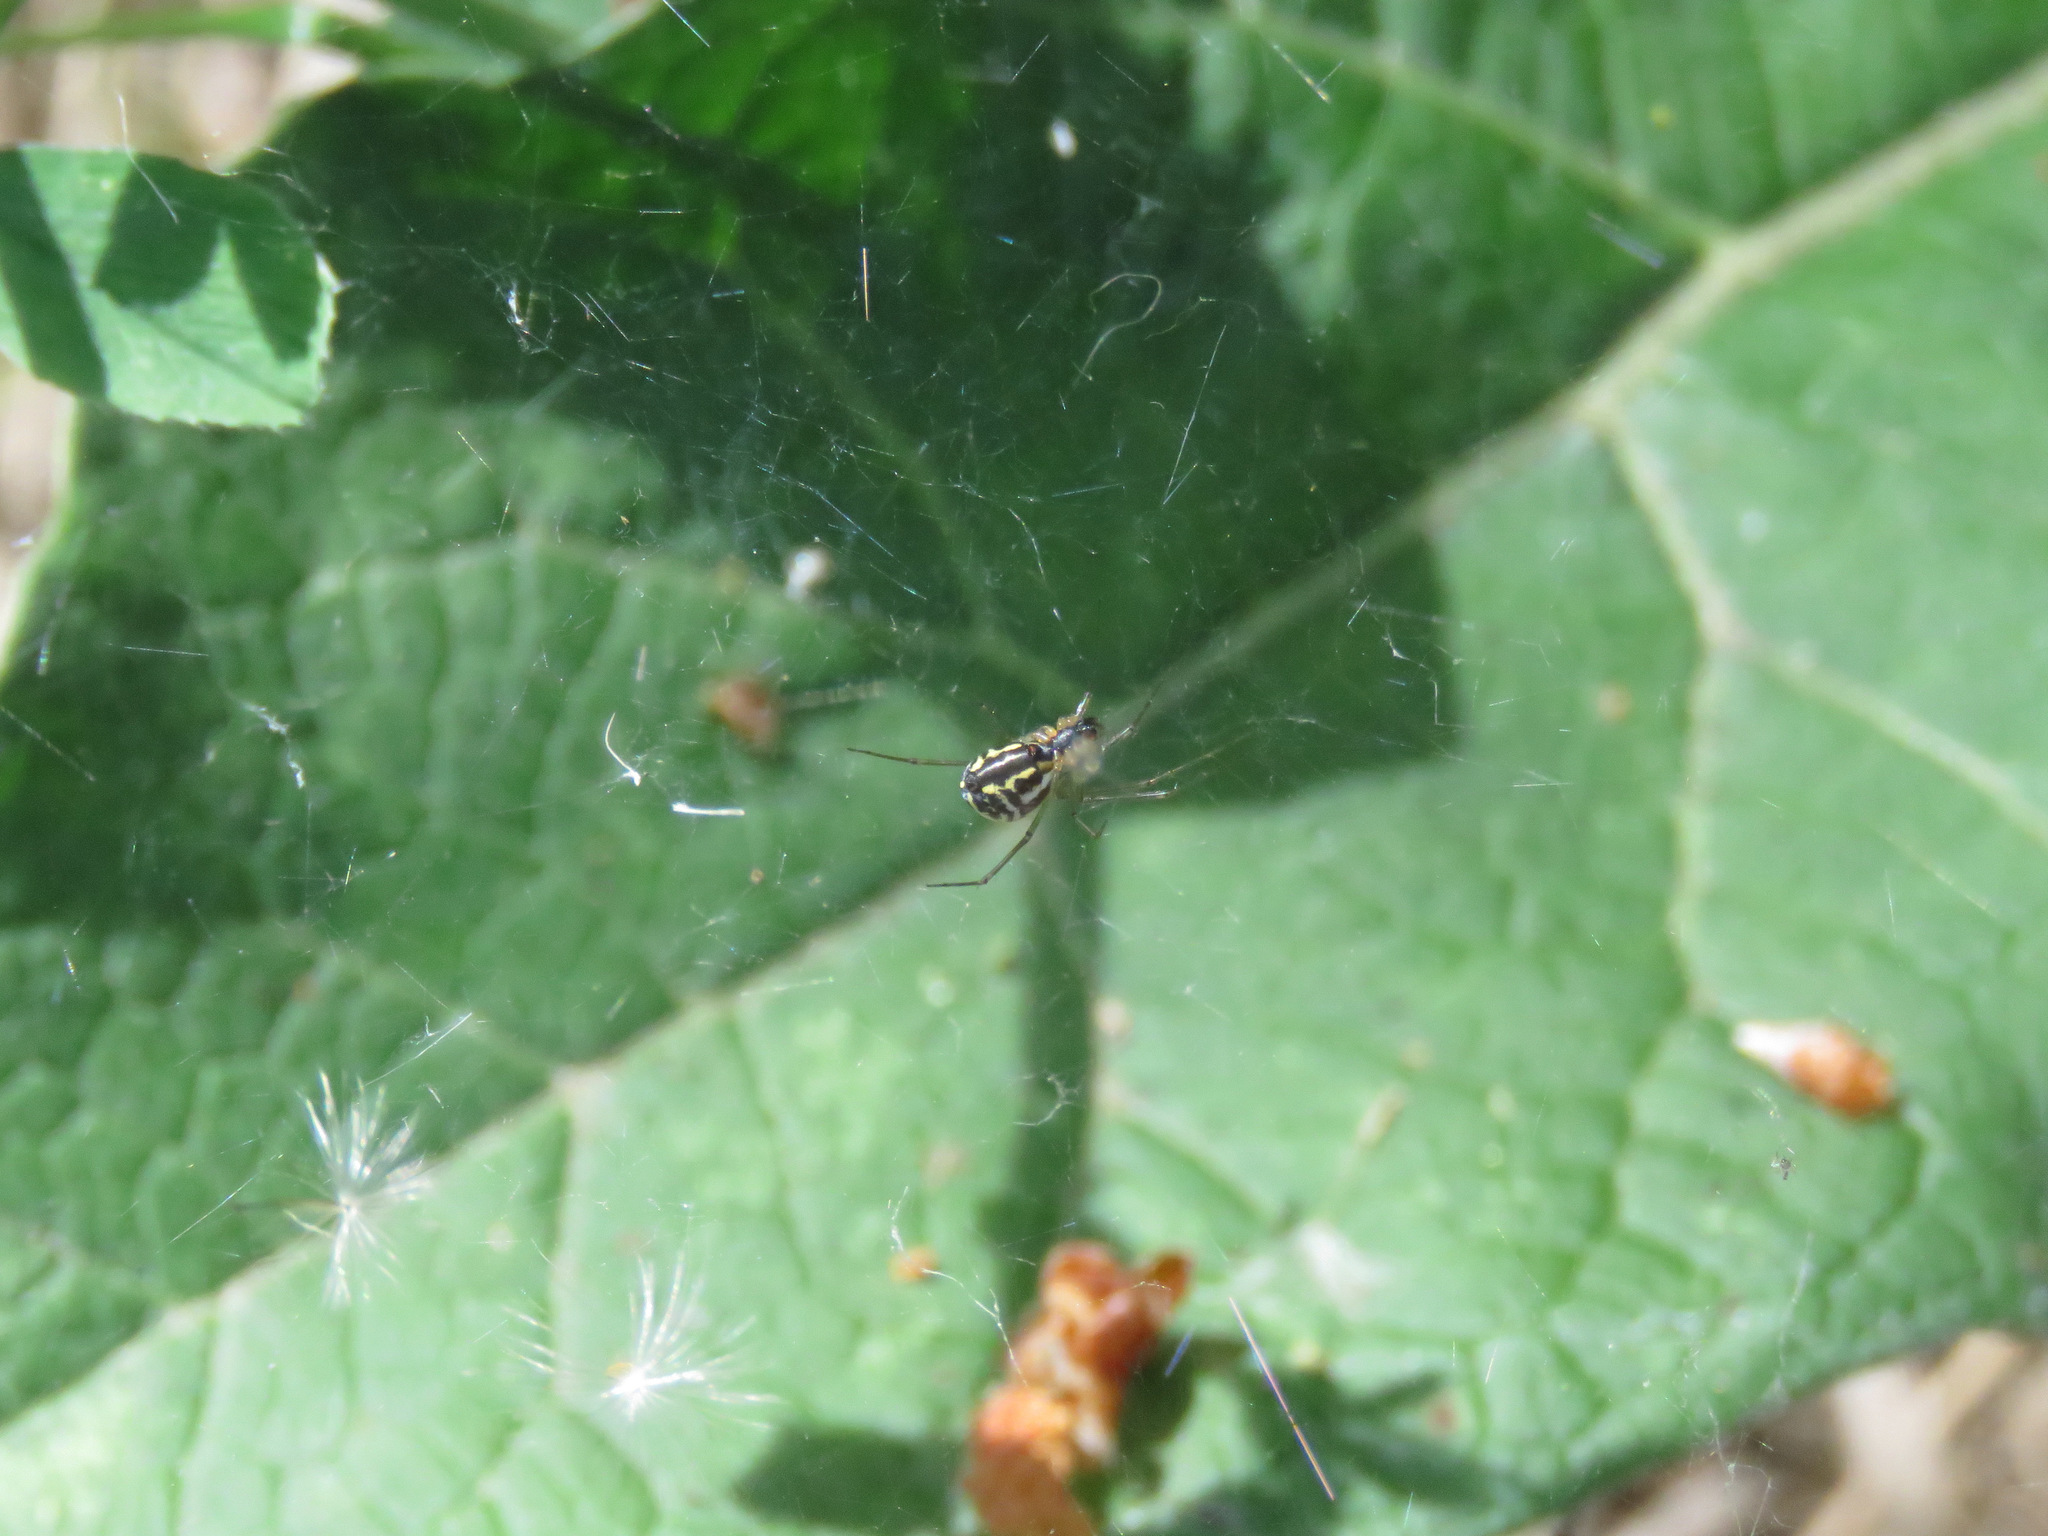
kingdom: Animalia
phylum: Arthropoda
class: Arachnida
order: Araneae
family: Linyphiidae
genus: Neriene
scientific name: Neriene radiata
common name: Filmy dome spider
